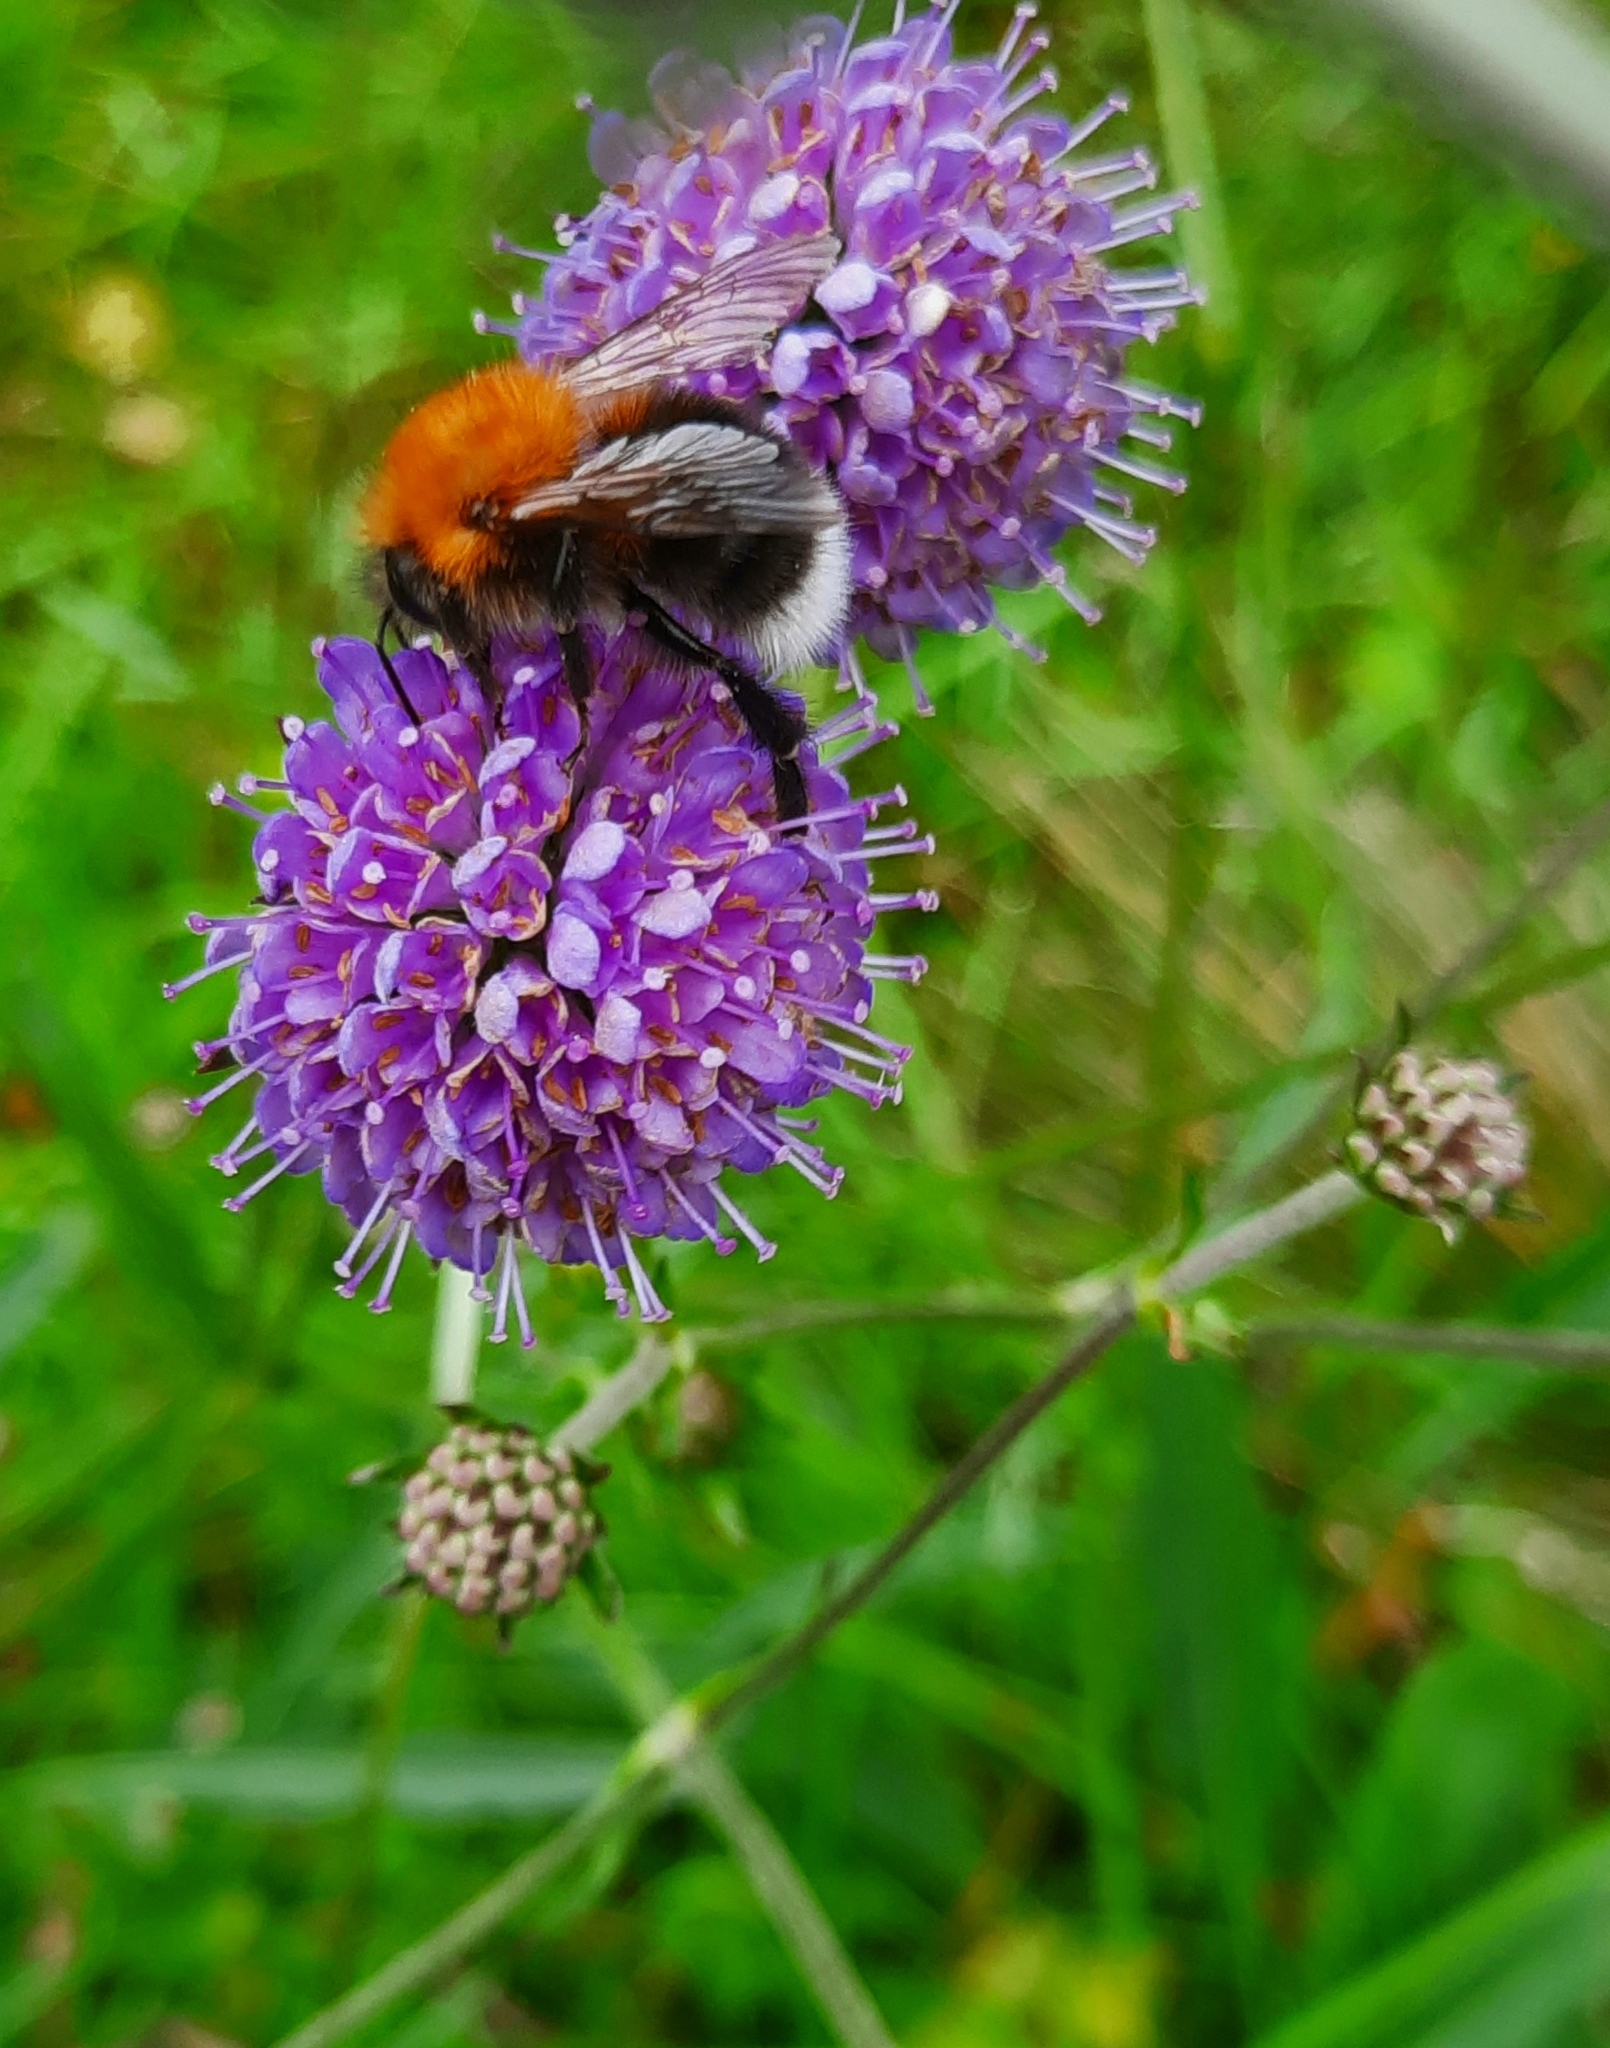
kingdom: Animalia
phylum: Arthropoda
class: Insecta
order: Hymenoptera
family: Apidae
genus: Bombus
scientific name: Bombus hypnorum
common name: New garden bumblebee
